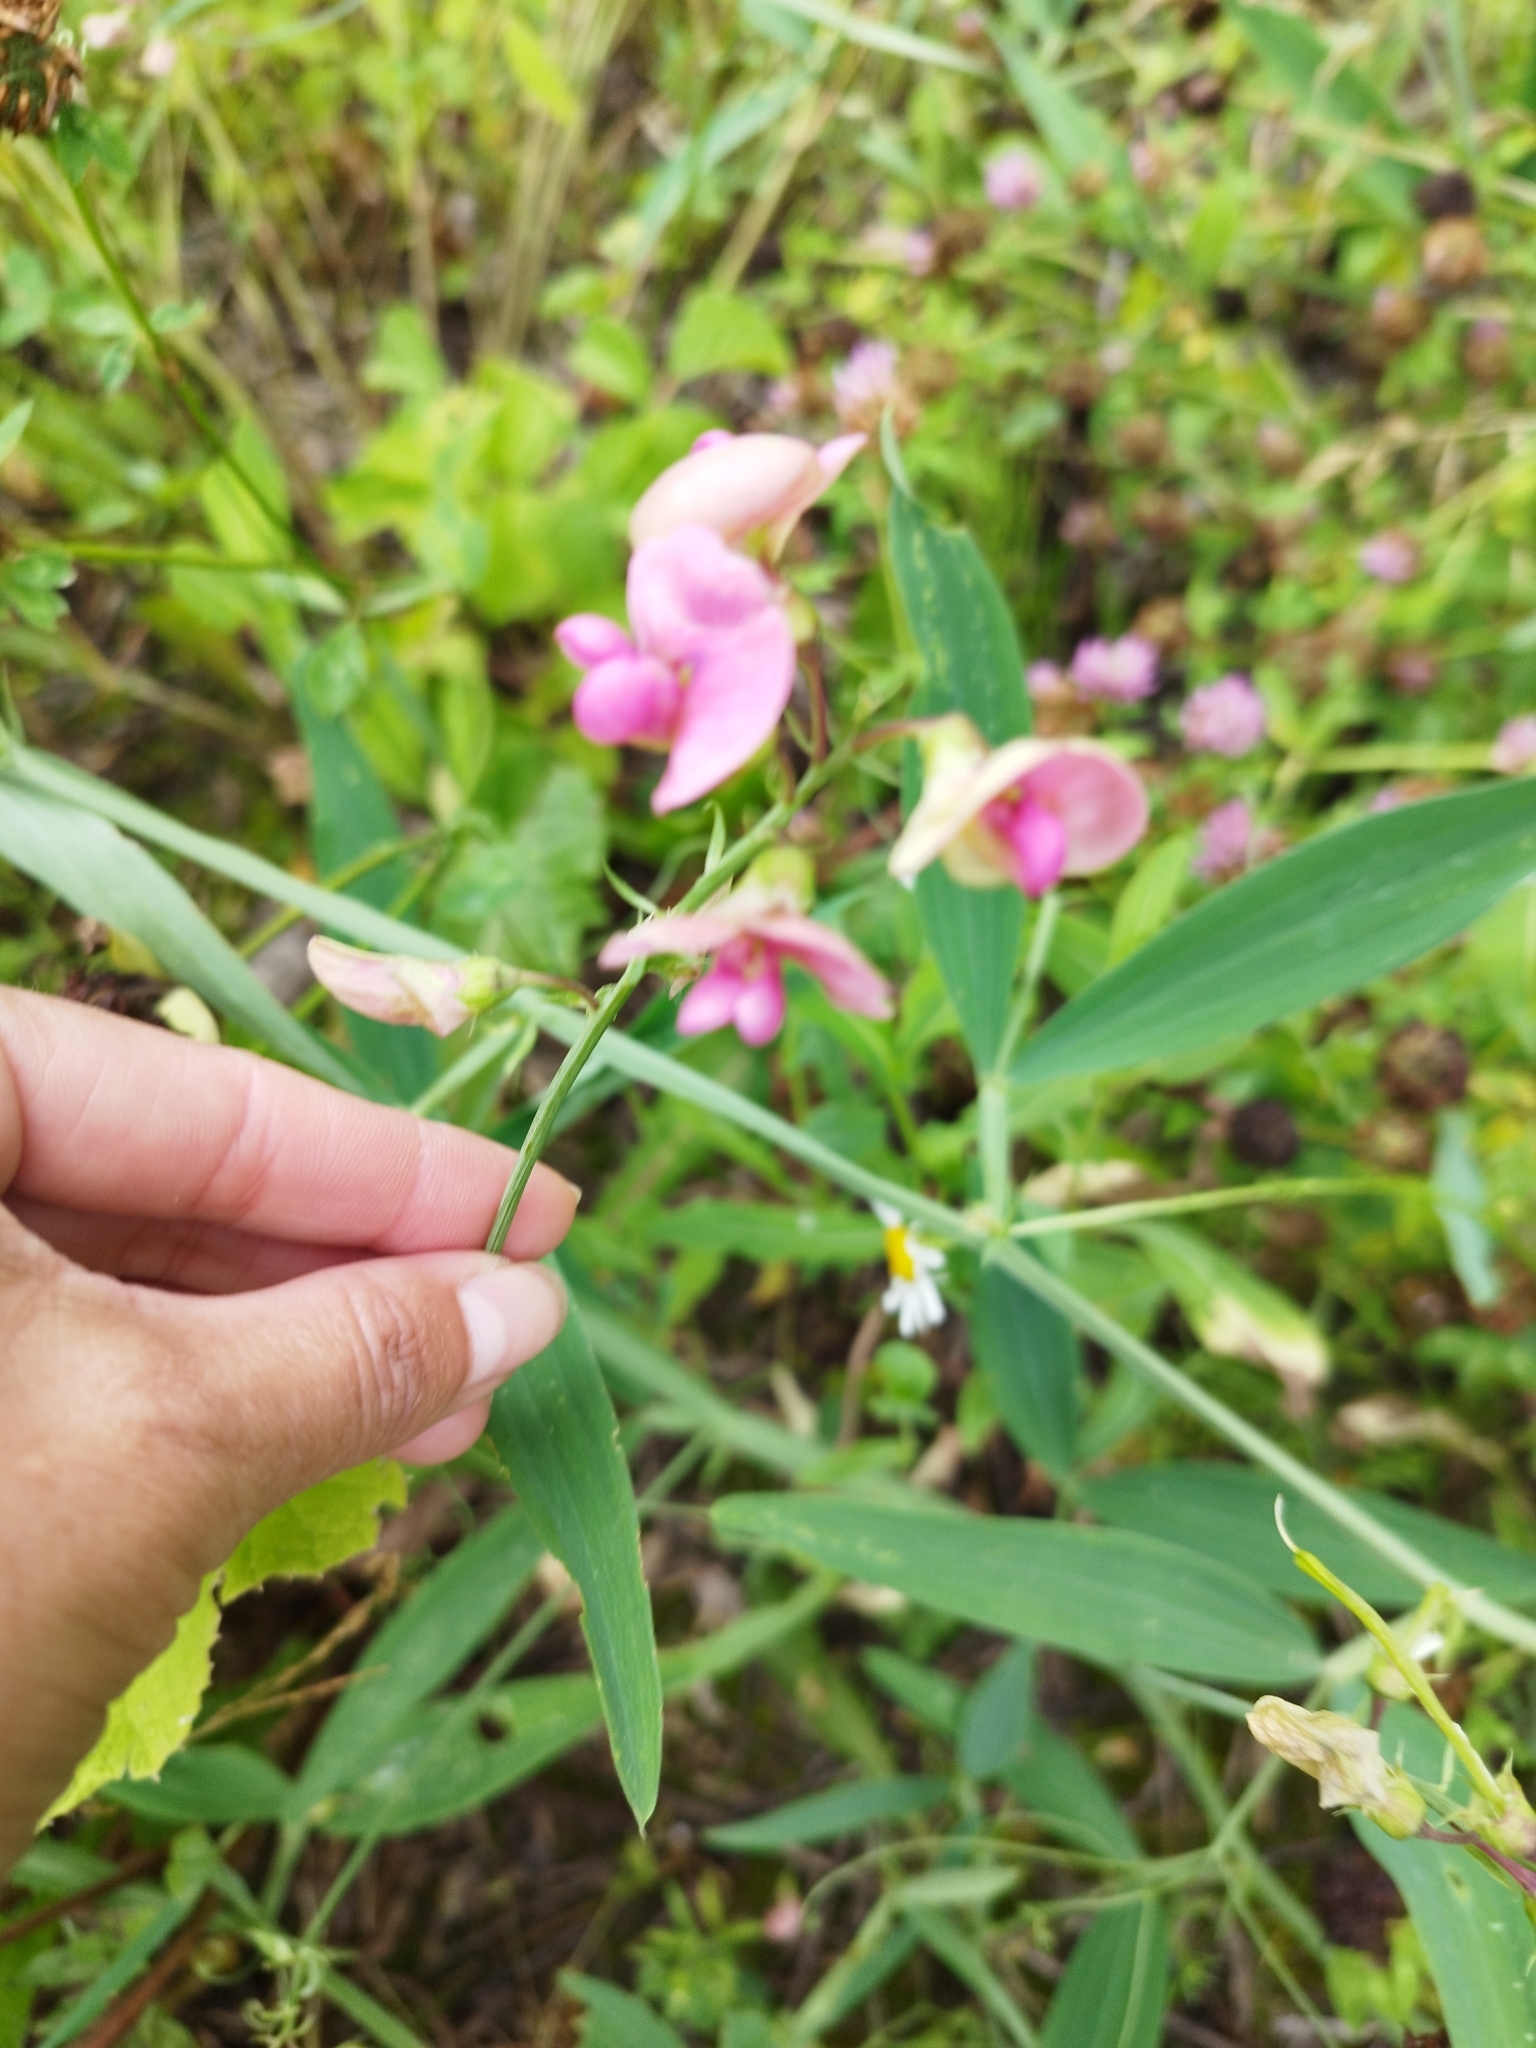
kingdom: Plantae
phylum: Tracheophyta
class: Magnoliopsida
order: Fabales
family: Fabaceae
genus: Lathyrus
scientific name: Lathyrus sylvestris
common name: Flat pea
